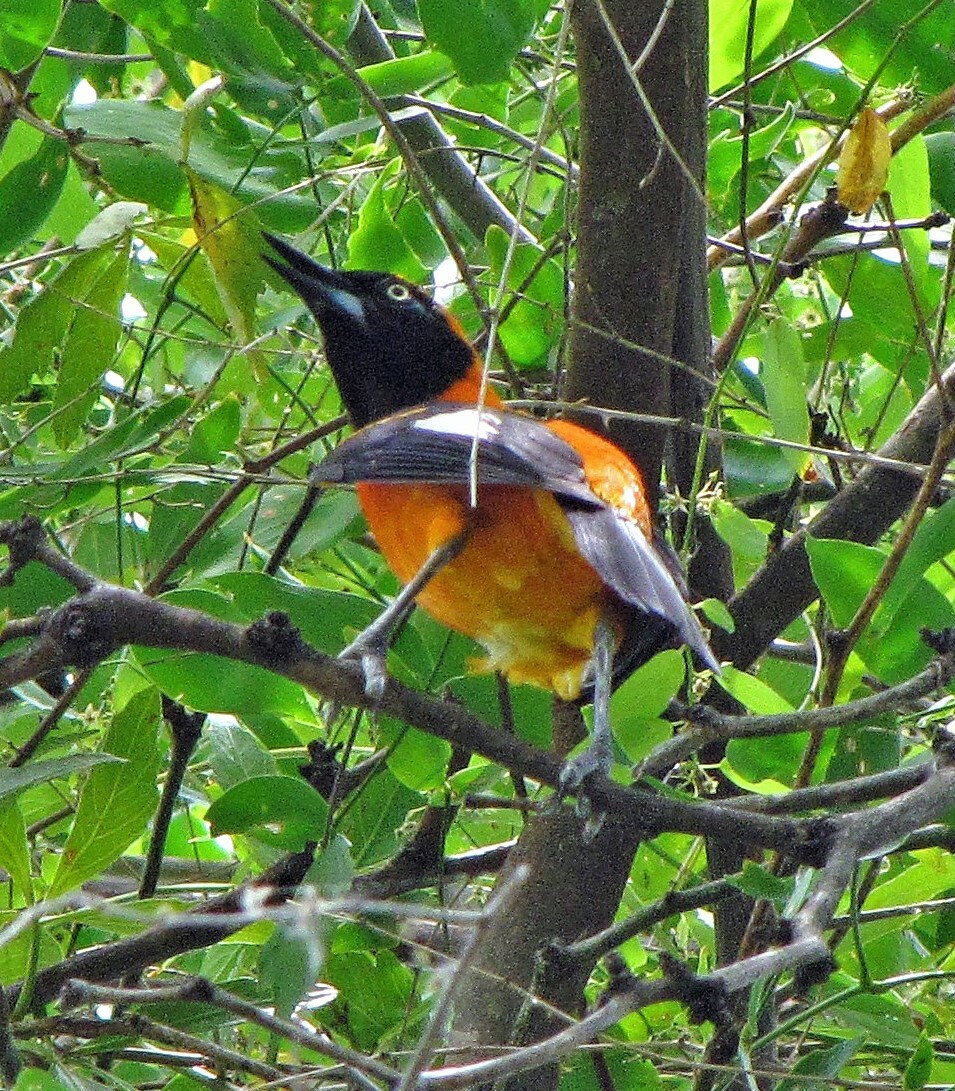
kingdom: Animalia
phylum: Chordata
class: Aves
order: Passeriformes
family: Icteridae
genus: Icterus
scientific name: Icterus icterus
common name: Venezuelan troupial
